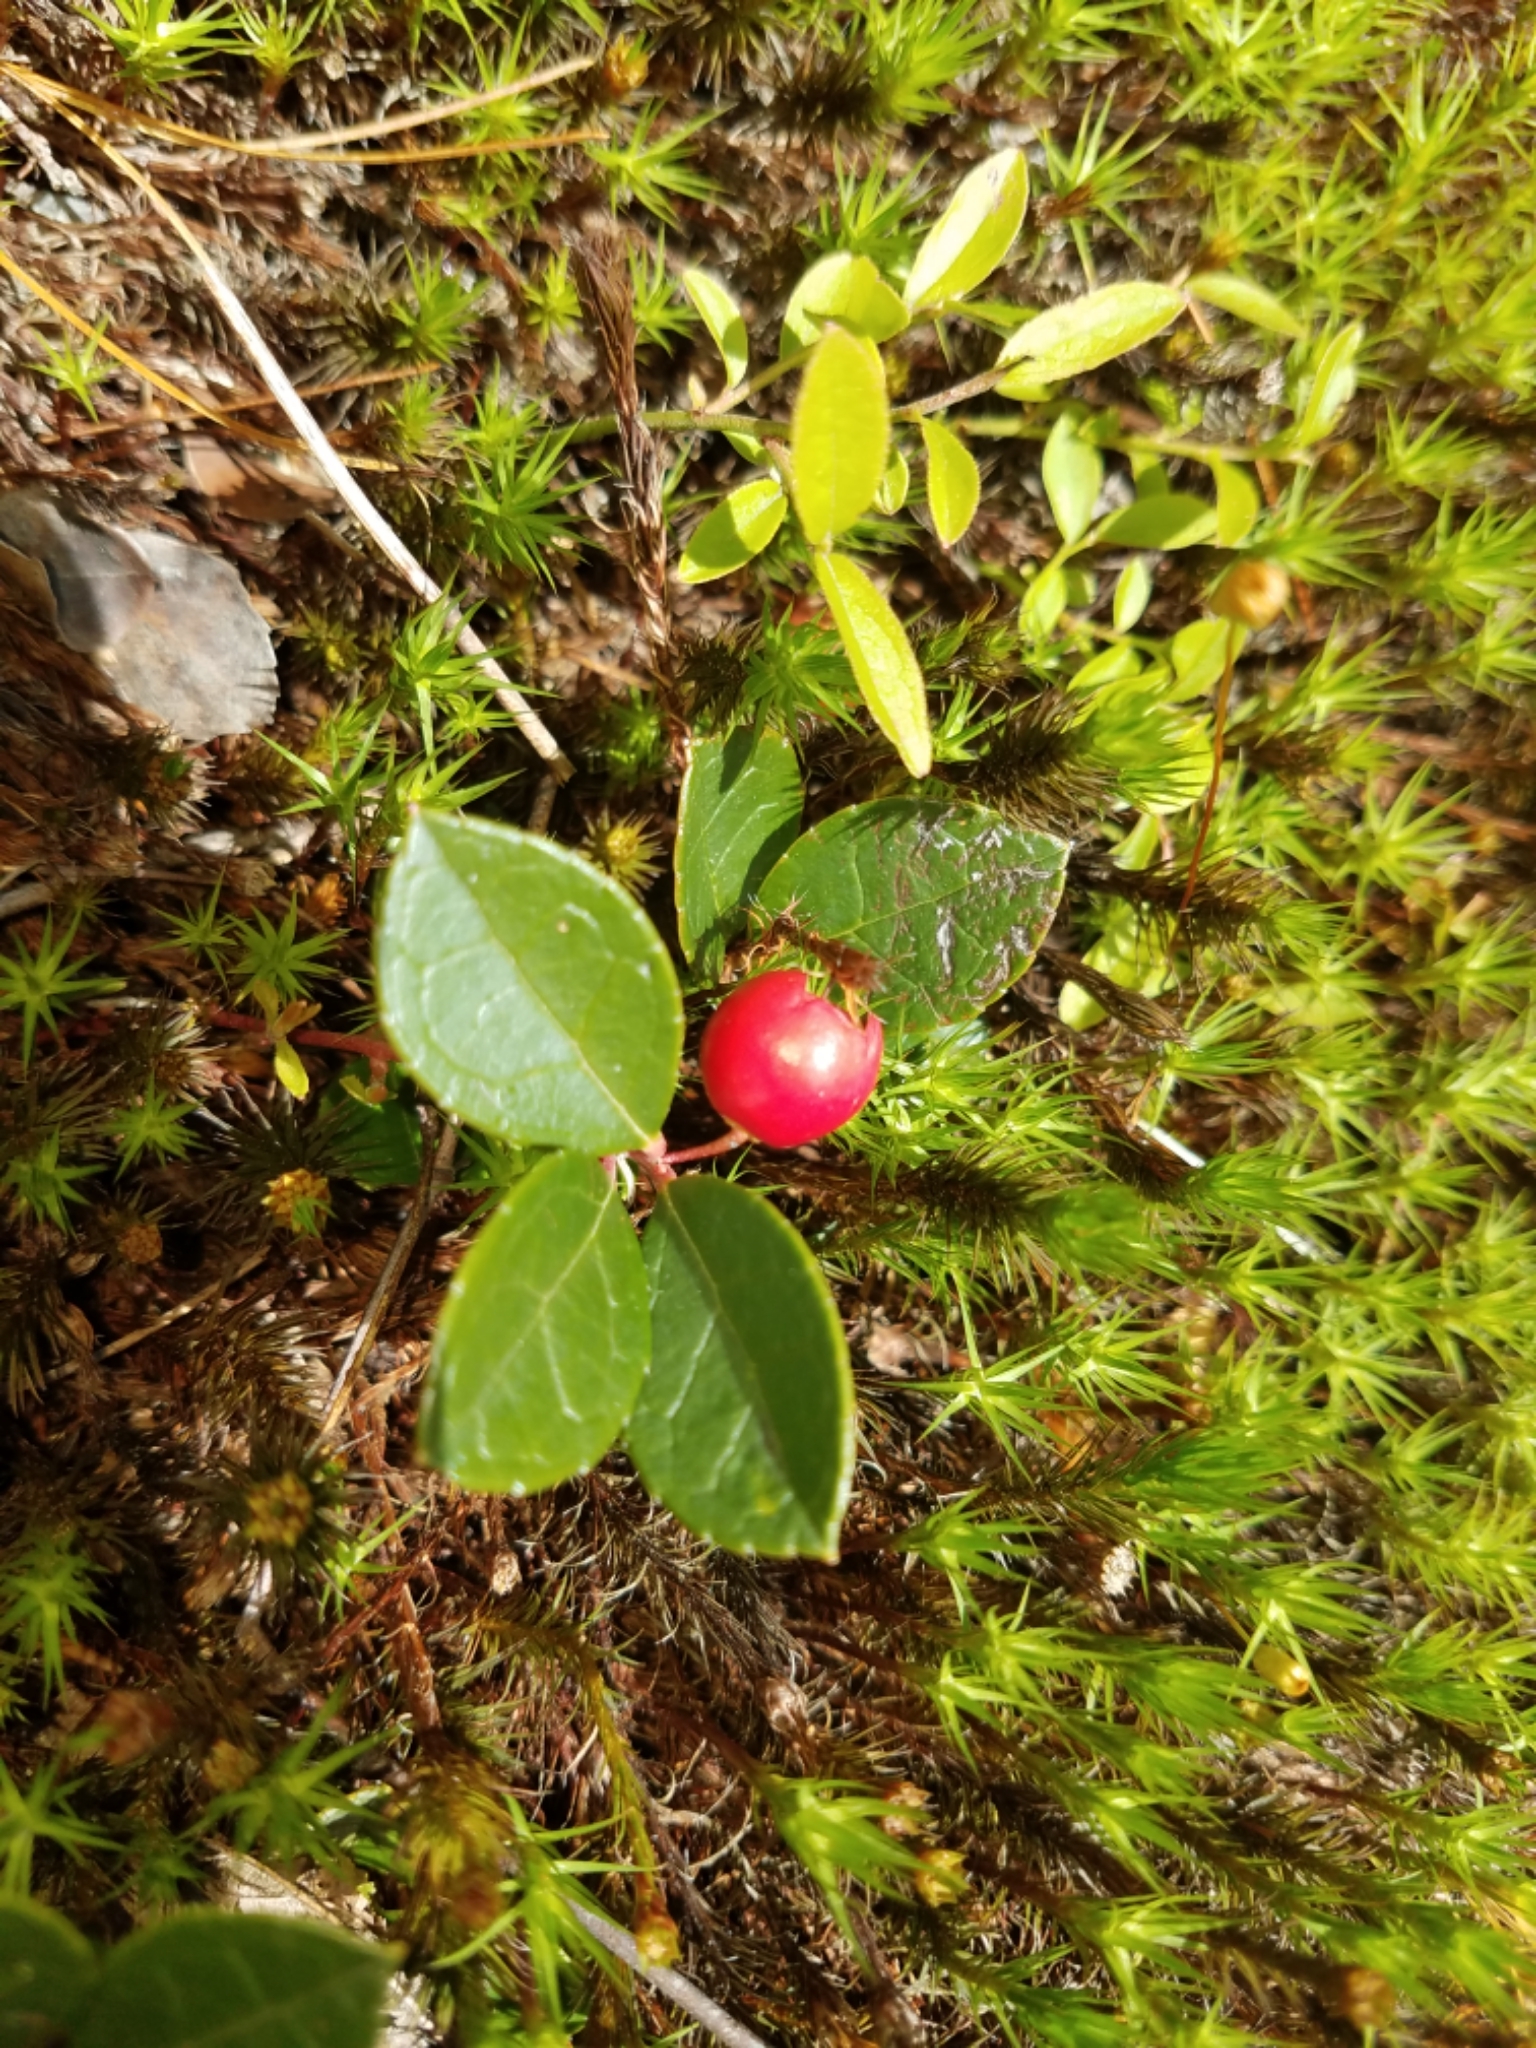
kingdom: Plantae
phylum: Tracheophyta
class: Magnoliopsida
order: Ericales
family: Ericaceae
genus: Gaultheria
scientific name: Gaultheria procumbens
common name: Checkerberry
